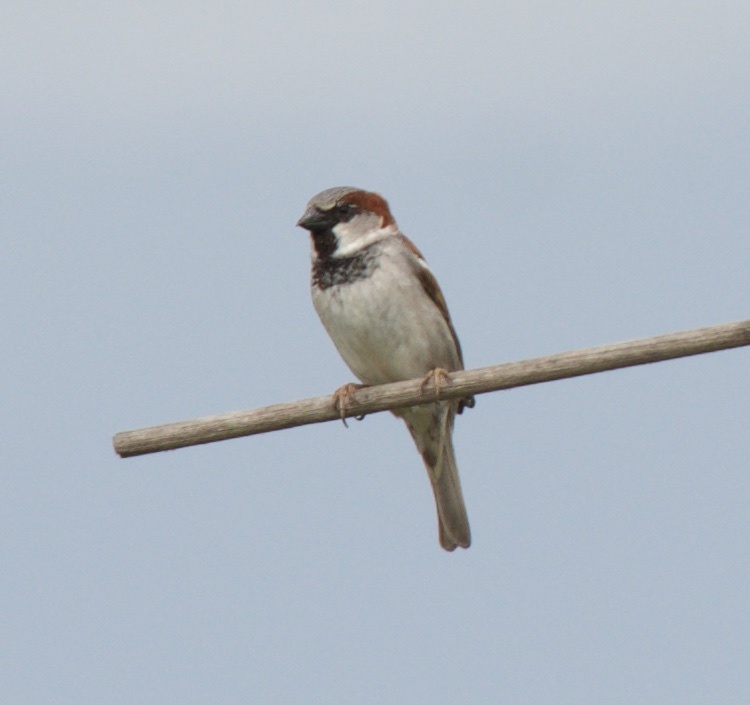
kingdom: Animalia
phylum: Chordata
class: Aves
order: Passeriformes
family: Passeridae
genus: Passer
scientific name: Passer domesticus
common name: House sparrow
